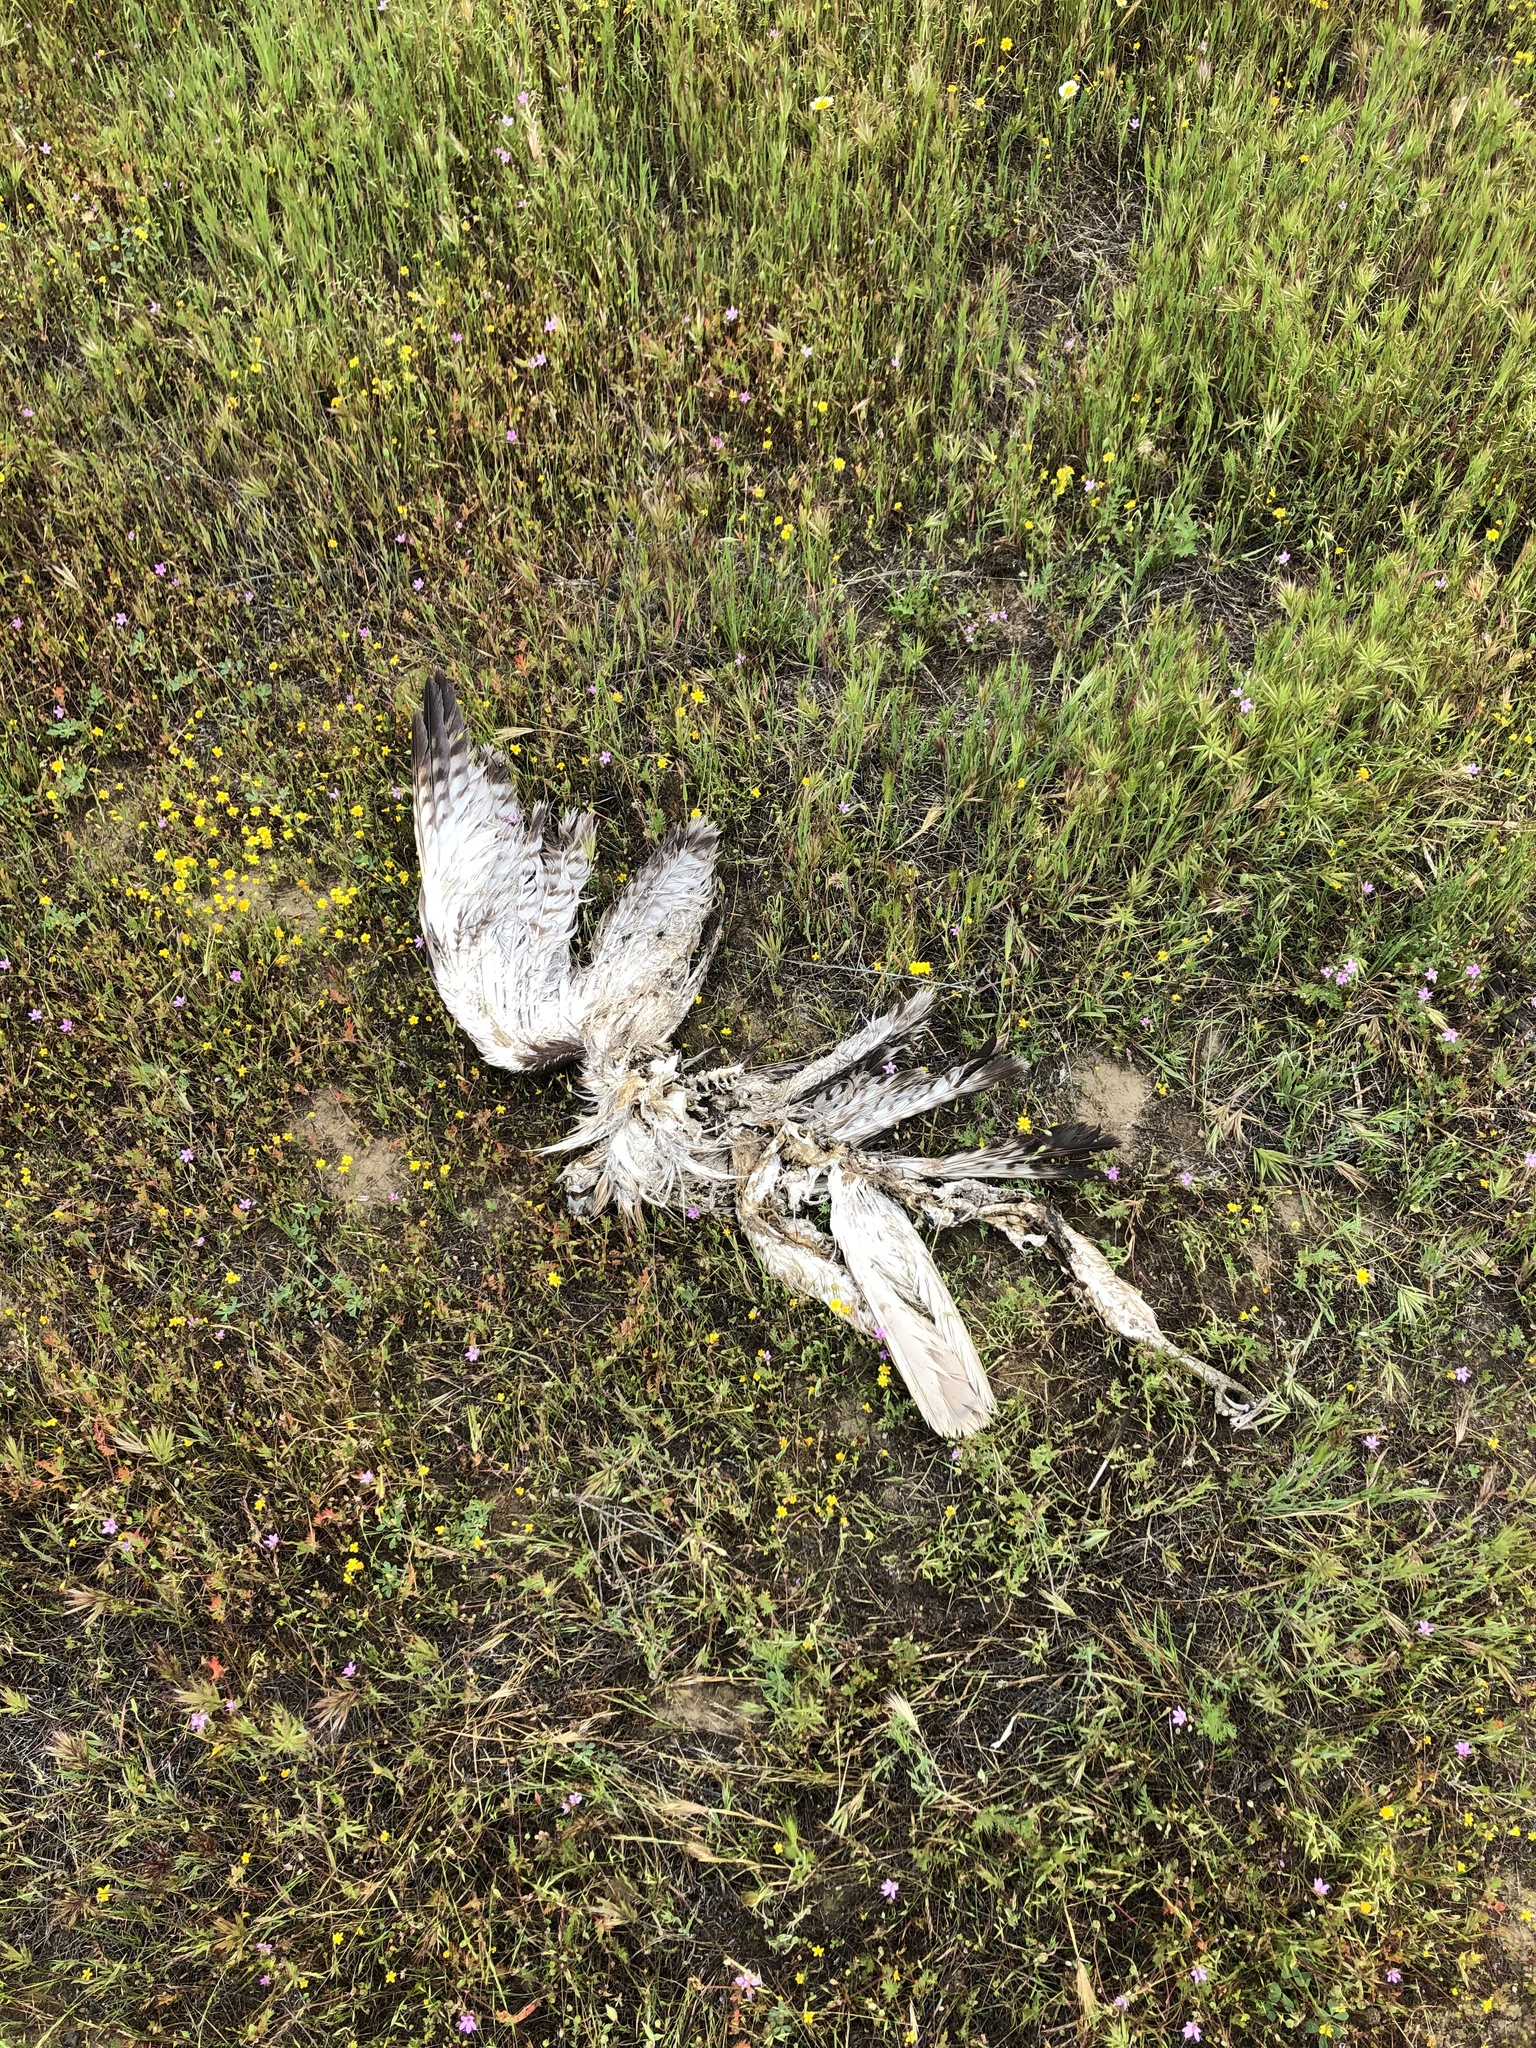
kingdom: Animalia
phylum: Chordata
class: Aves
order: Accipitriformes
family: Accipitridae
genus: Buteo
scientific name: Buteo jamaicensis
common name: Red-tailed hawk
